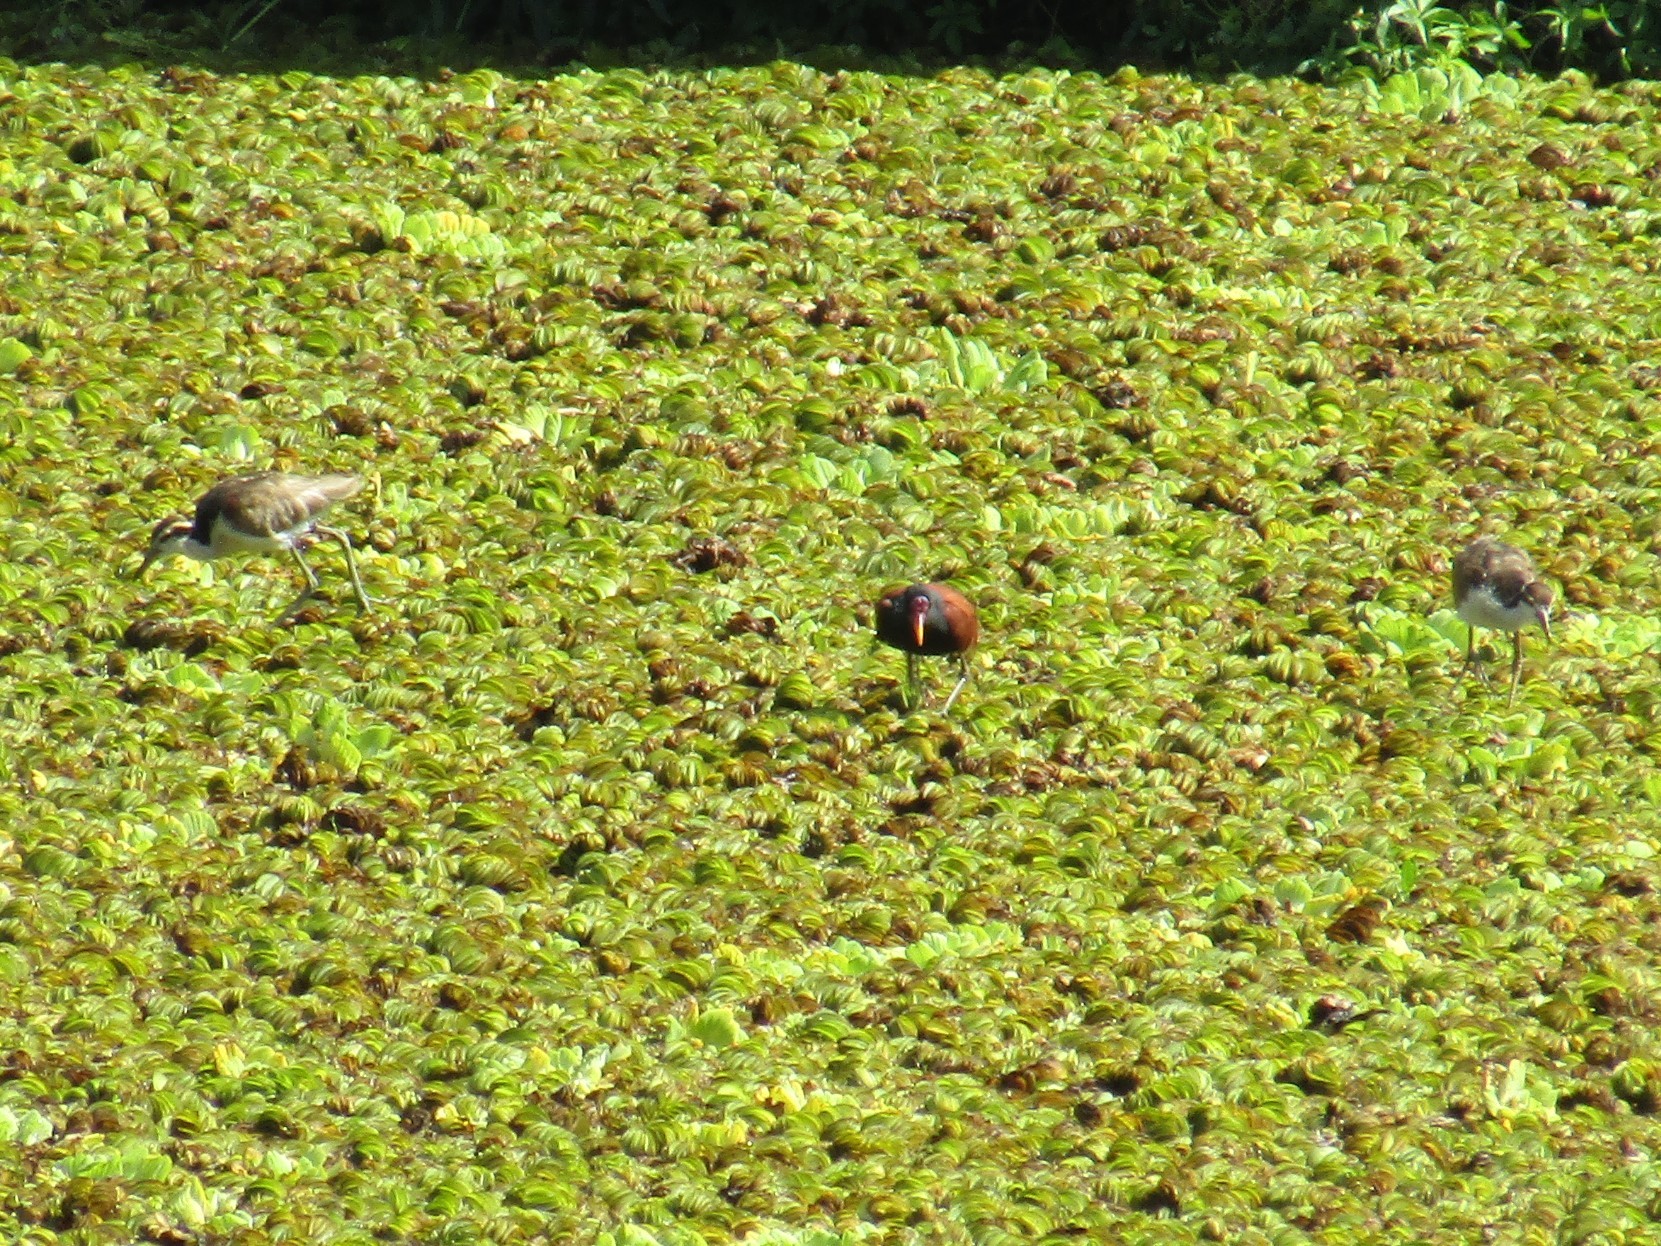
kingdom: Animalia
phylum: Chordata
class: Aves
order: Charadriiformes
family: Jacanidae
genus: Jacana
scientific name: Jacana jacana
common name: Wattled jacana
